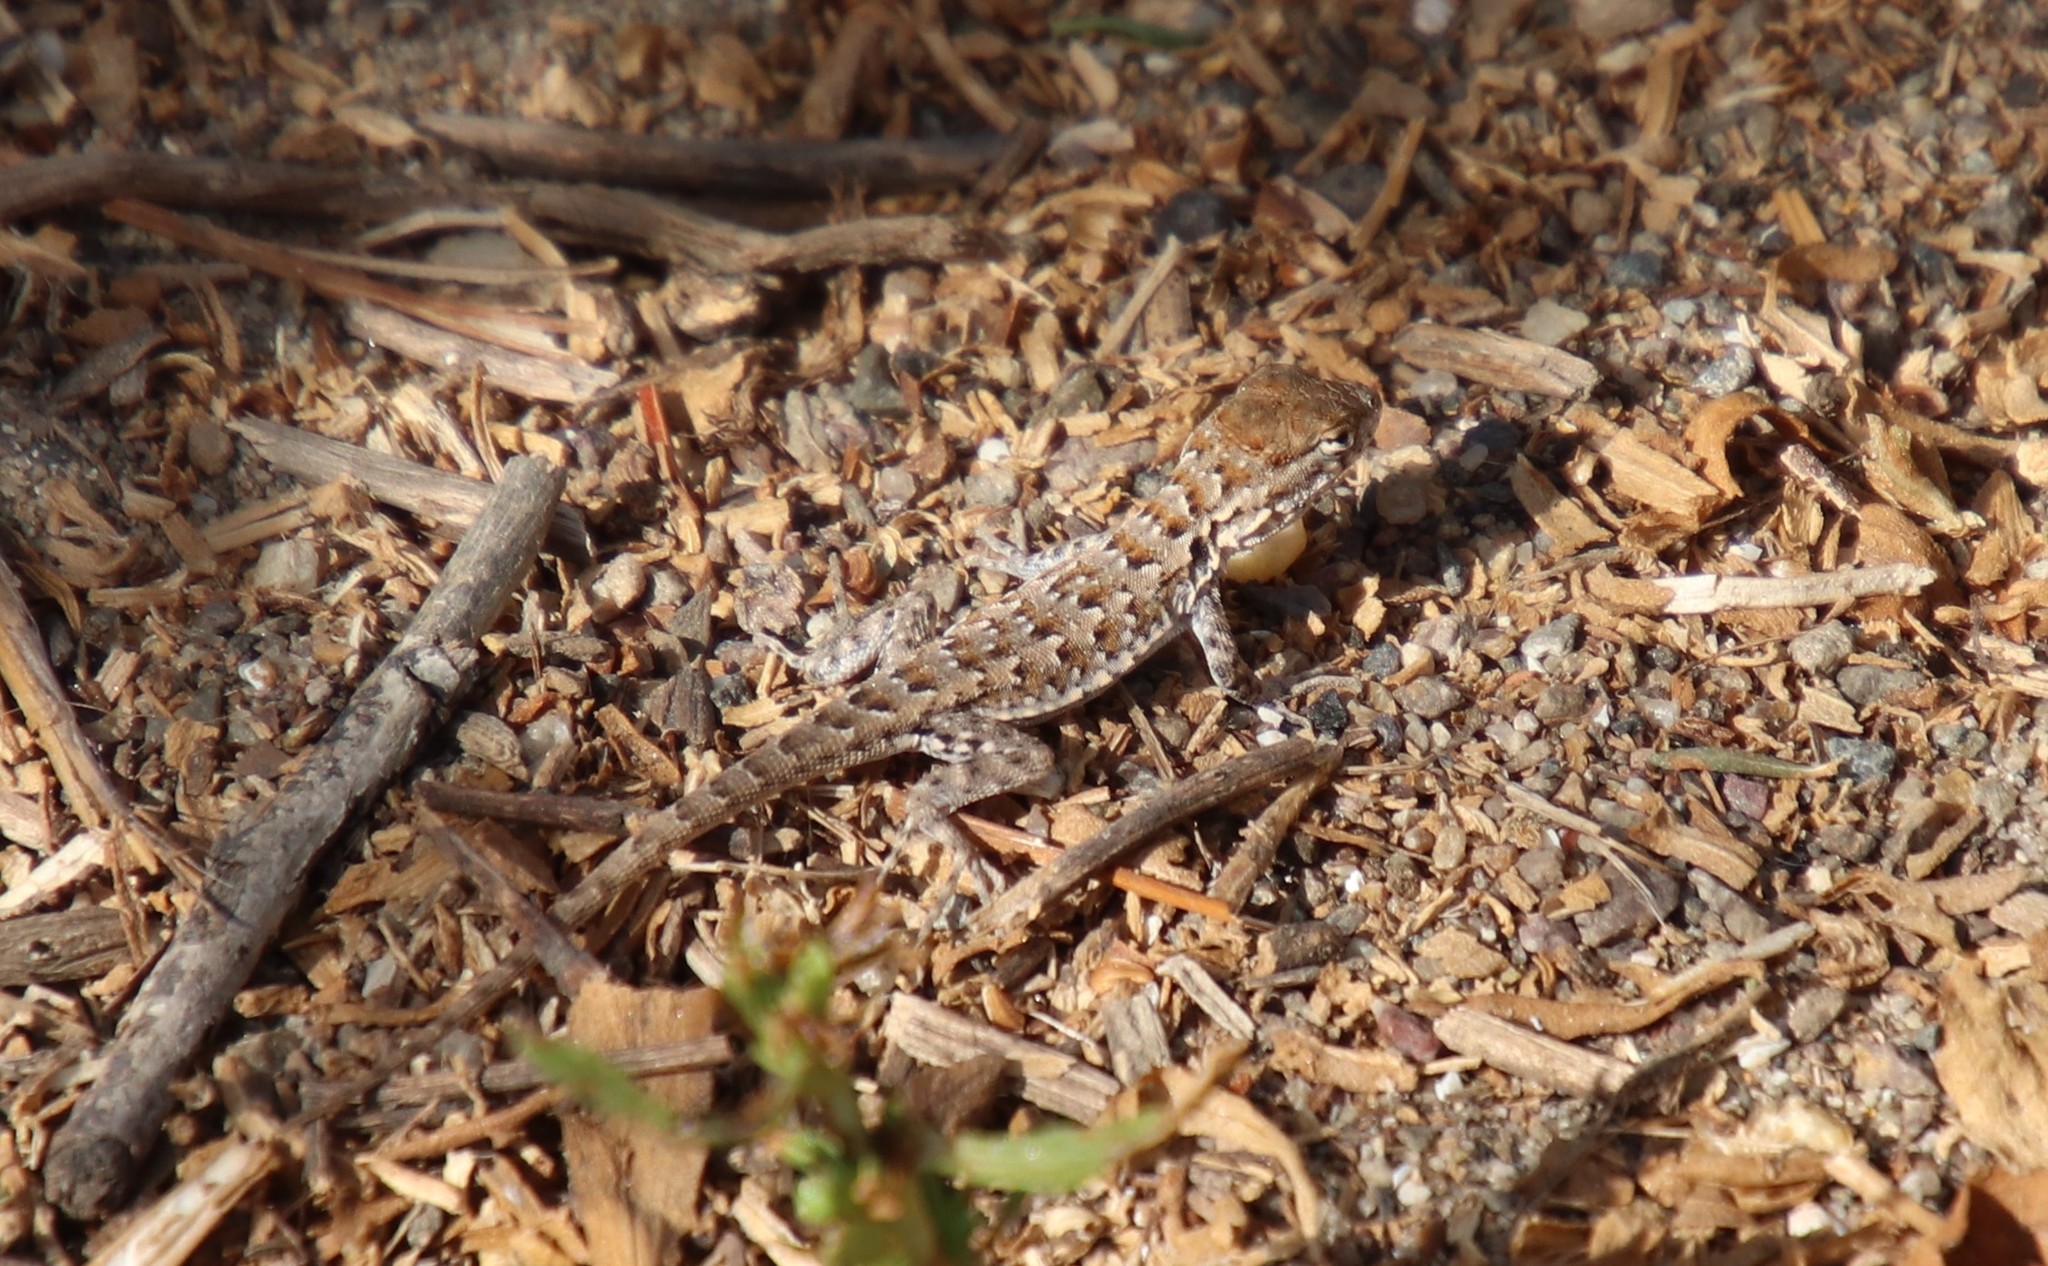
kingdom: Animalia
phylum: Chordata
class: Squamata
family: Phrynosomatidae
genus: Uta
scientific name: Uta stansburiana
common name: Side-blotched lizard
